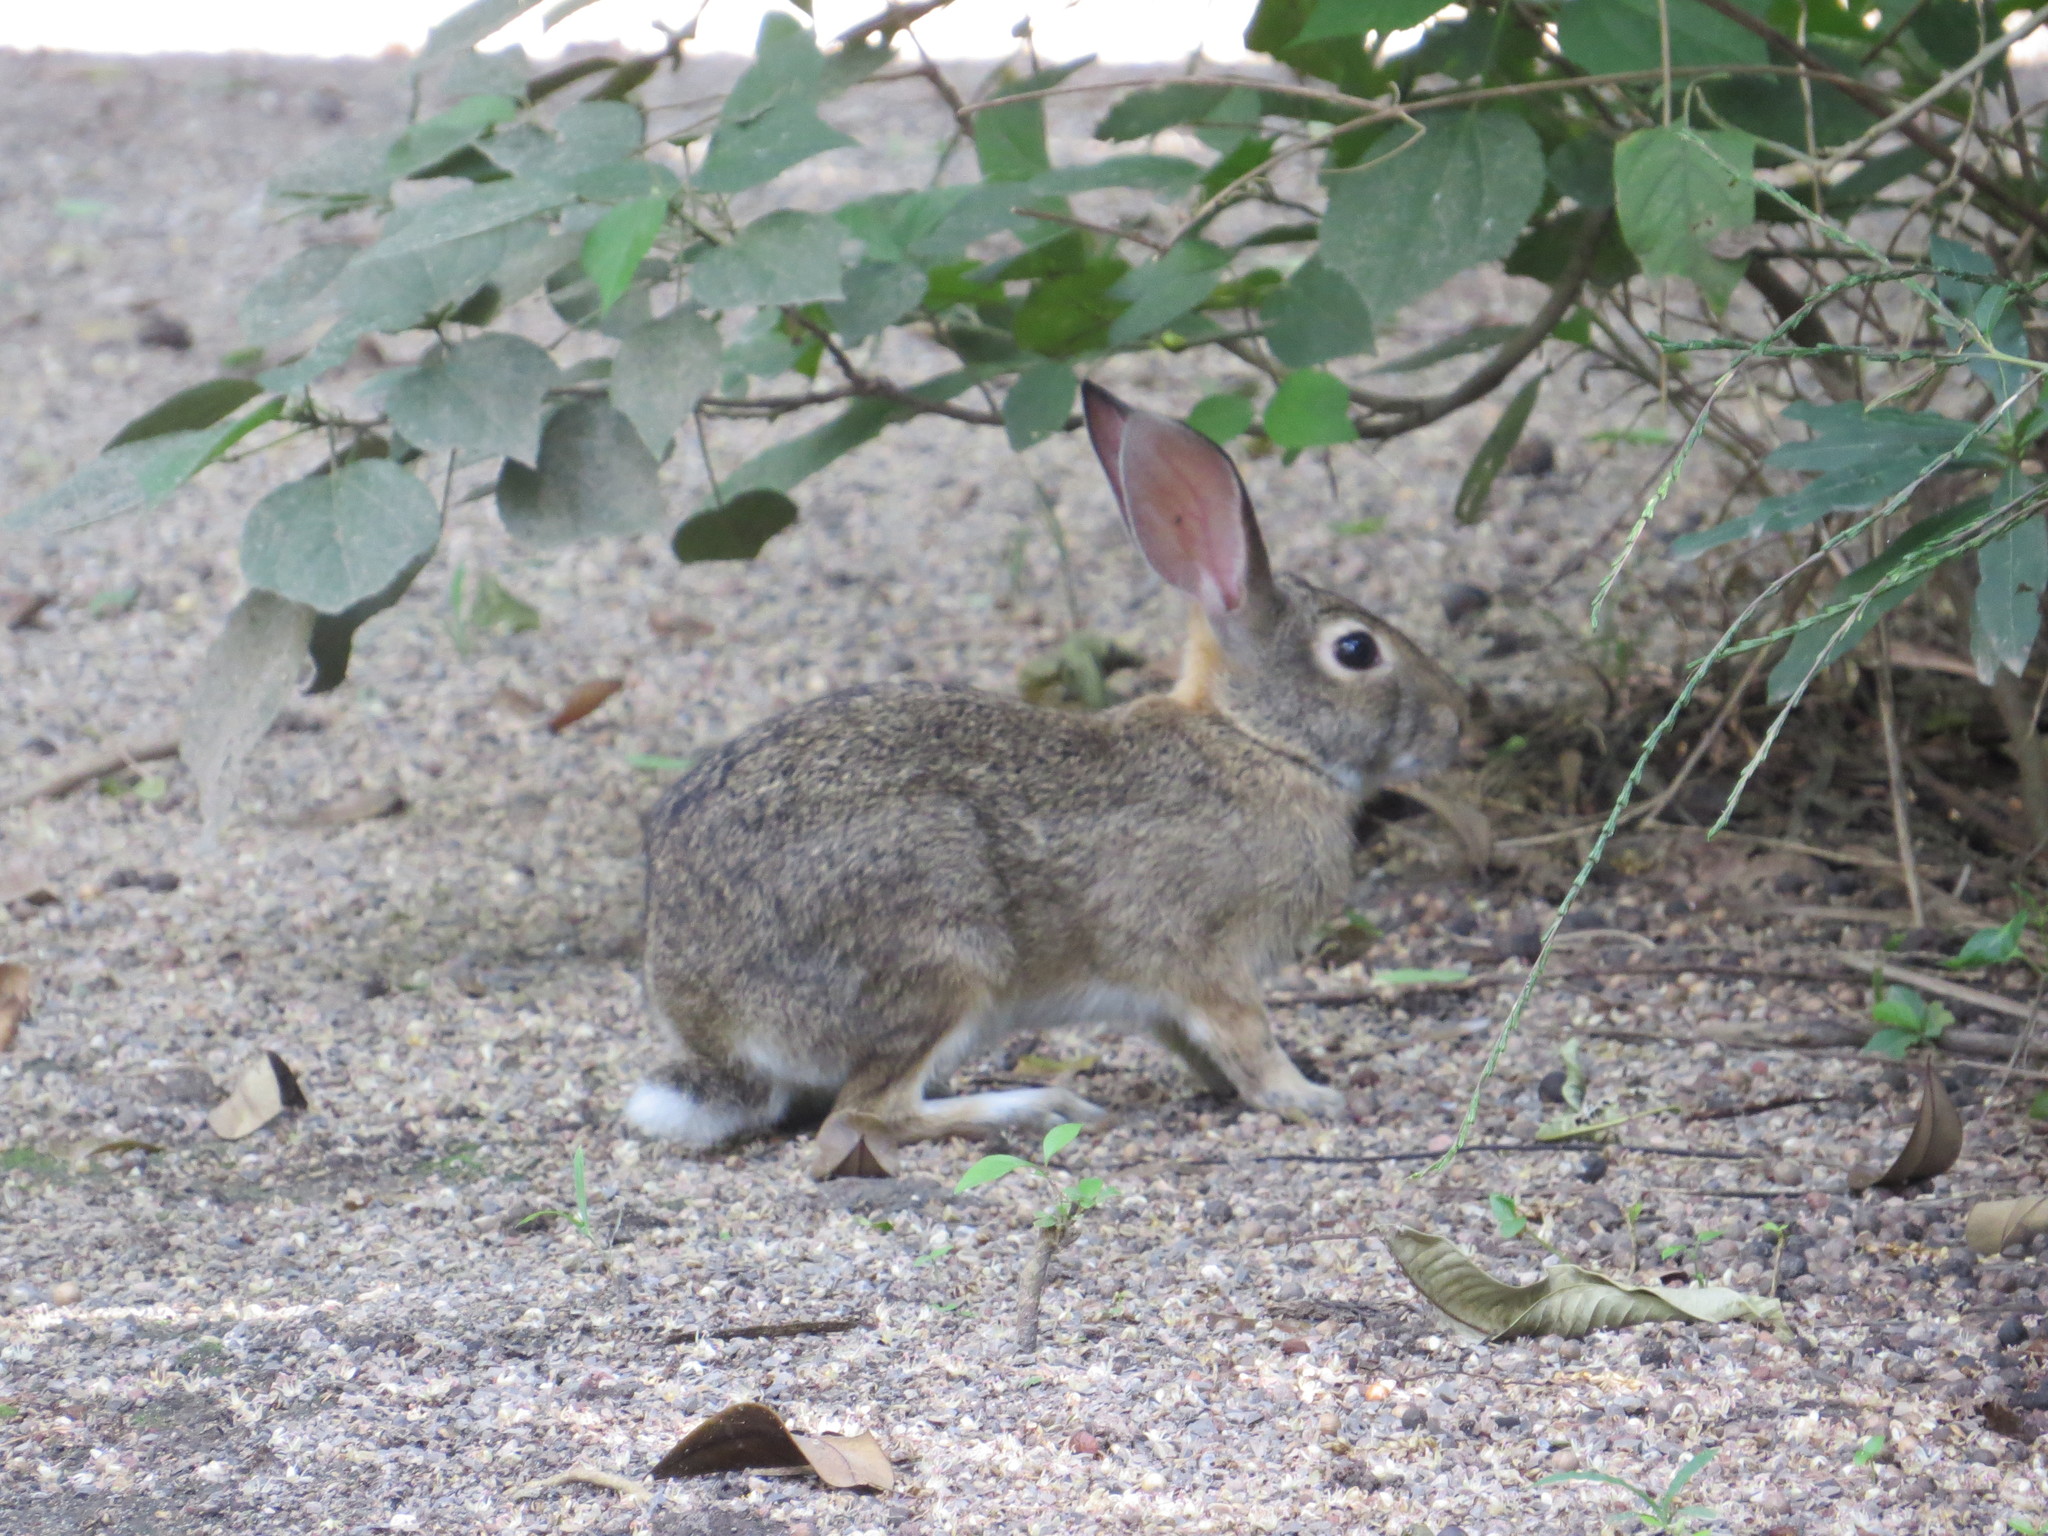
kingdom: Animalia
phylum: Chordata
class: Mammalia
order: Lagomorpha
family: Leporidae
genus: Sylvilagus
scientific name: Sylvilagus cunicularius
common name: Mexican cottontail
